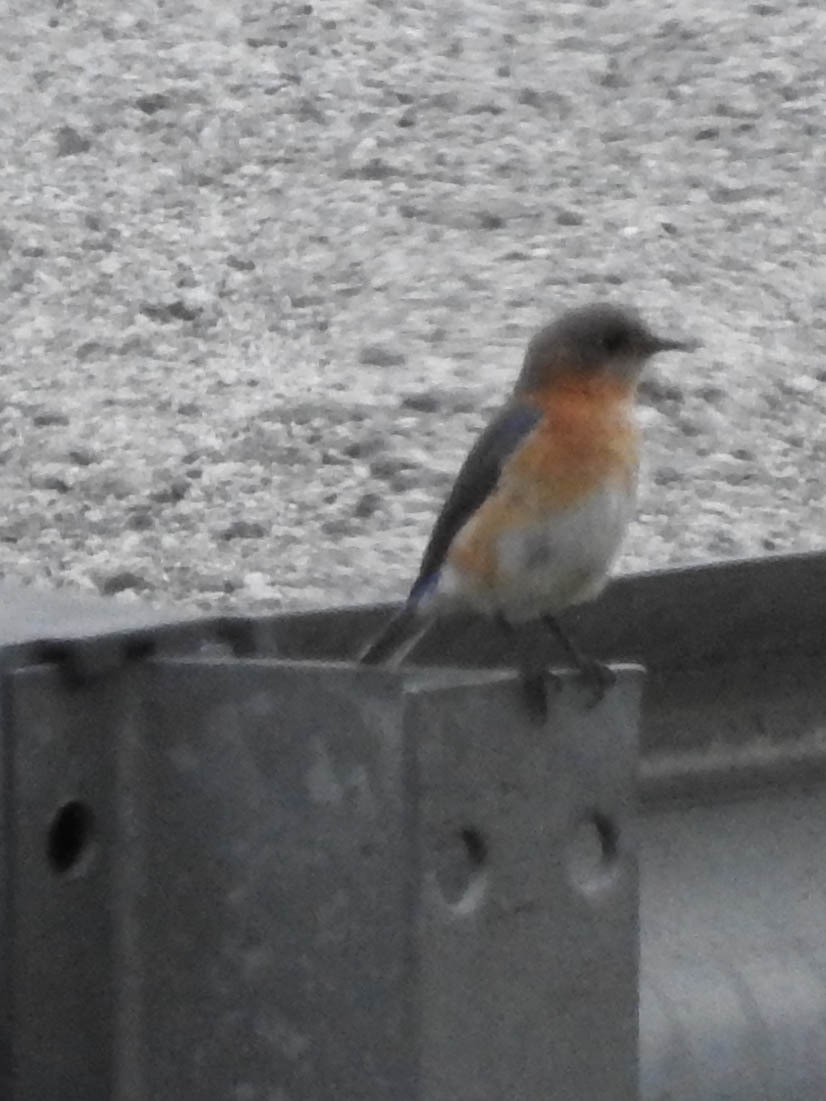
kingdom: Animalia
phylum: Chordata
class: Aves
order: Passeriformes
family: Turdidae
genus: Sialia
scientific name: Sialia sialis
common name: Eastern bluebird
